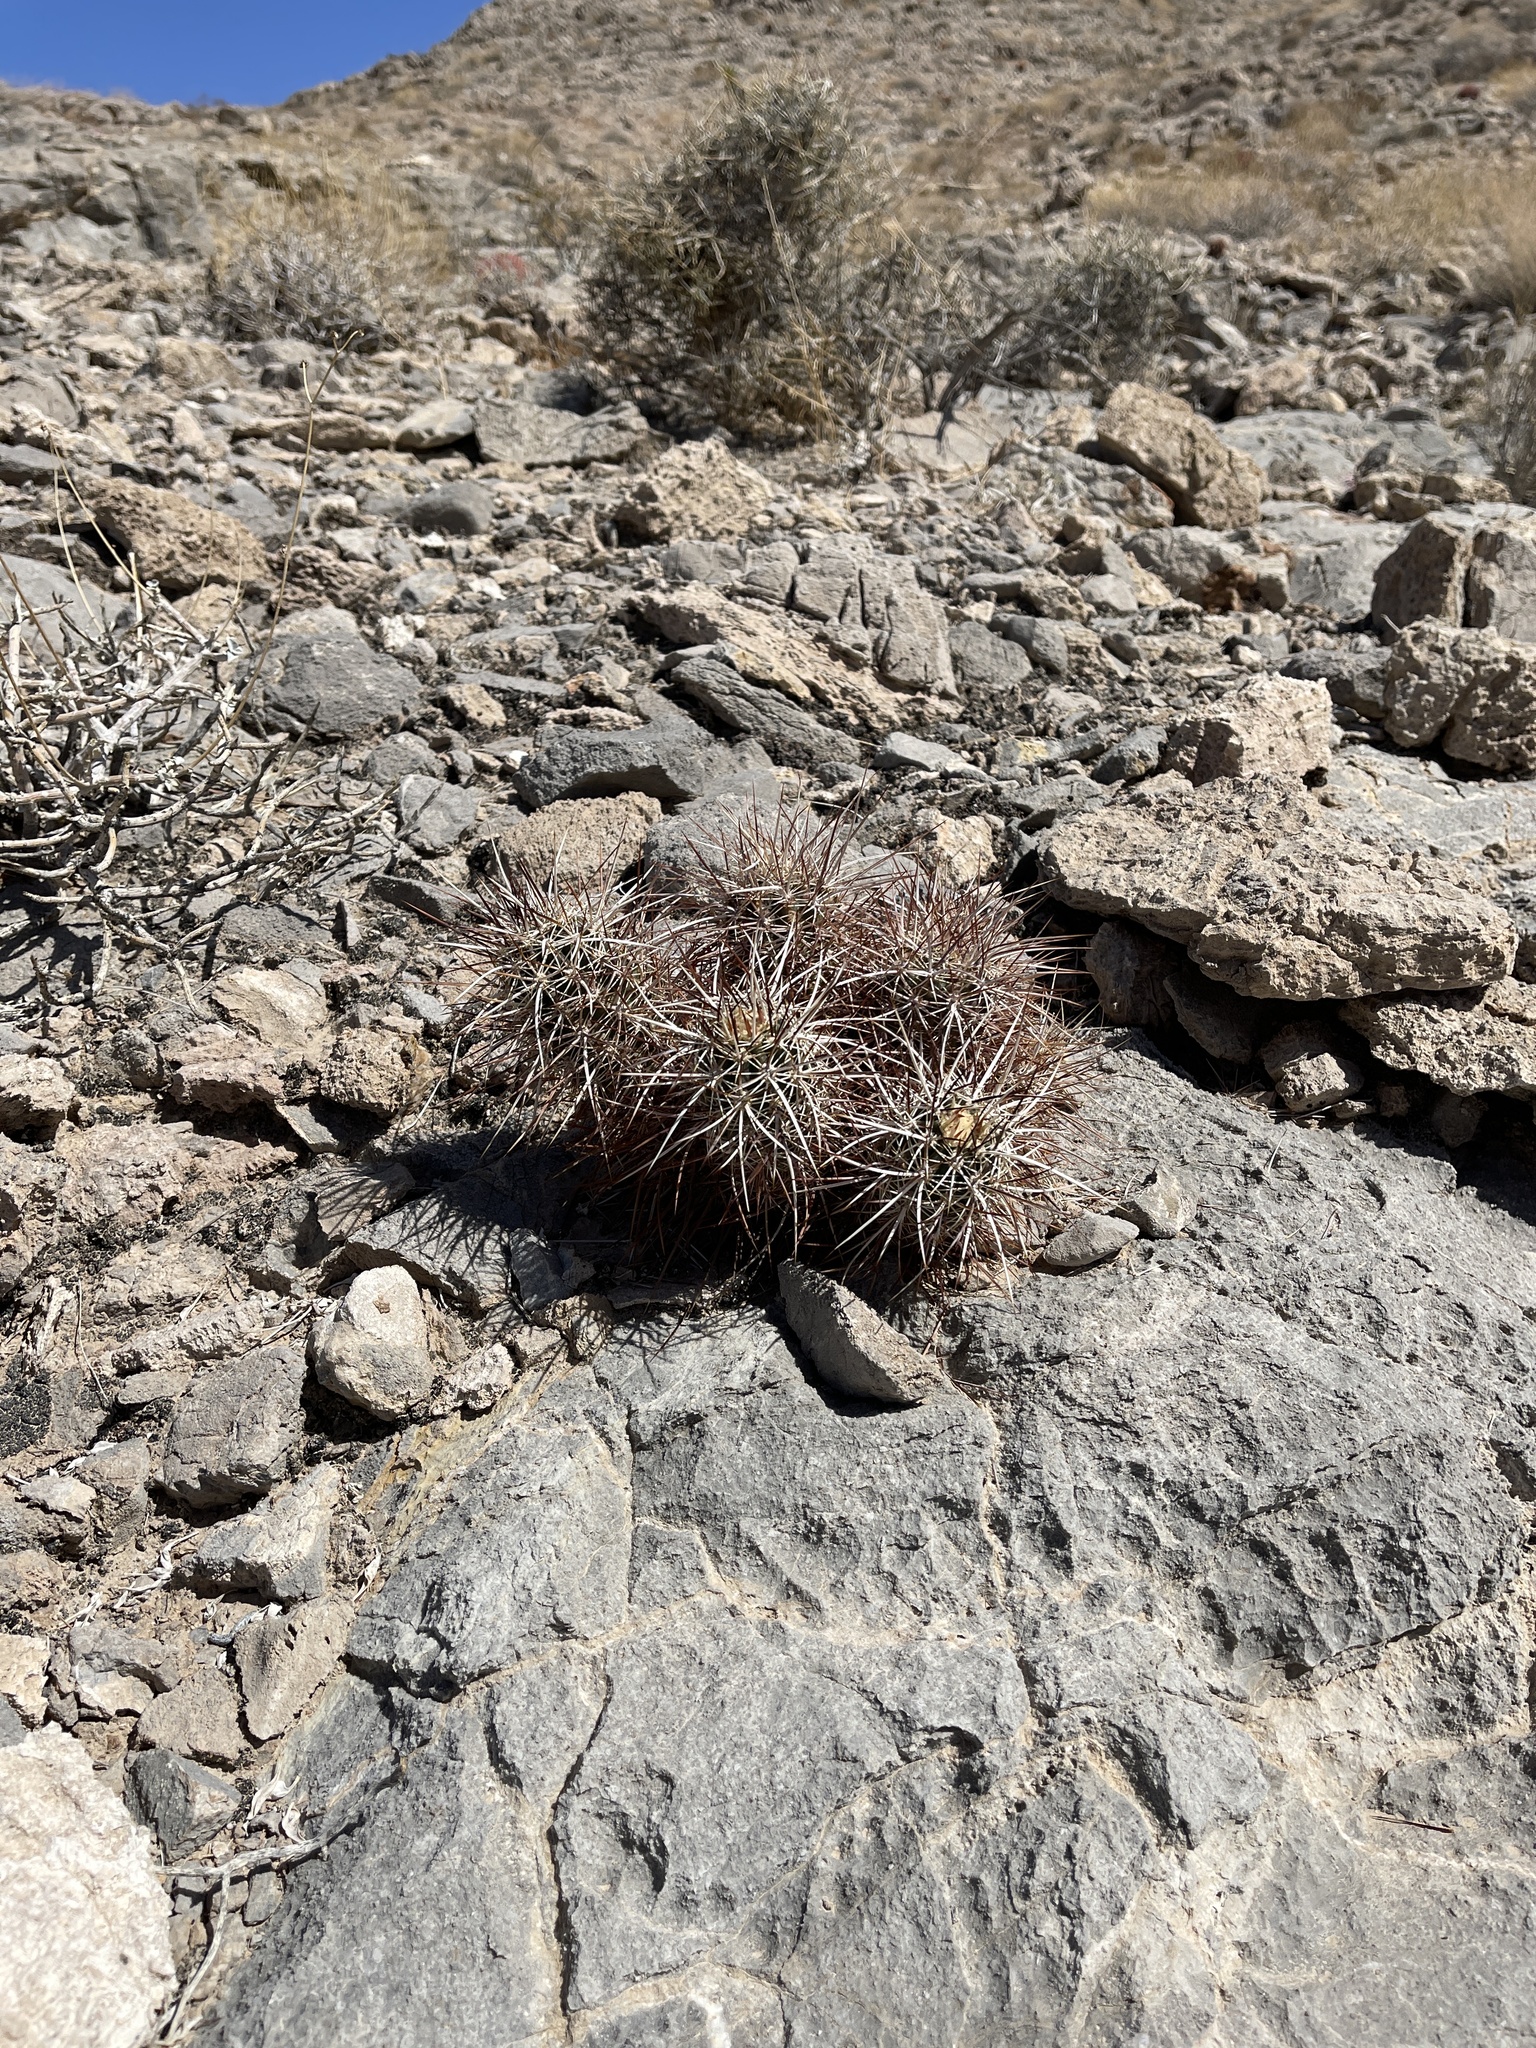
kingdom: Plantae
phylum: Tracheophyta
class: Magnoliopsida
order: Caryophyllales
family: Cactaceae
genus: Echinocereus
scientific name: Echinocereus engelmannii
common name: Engelmann's hedgehog cactus
